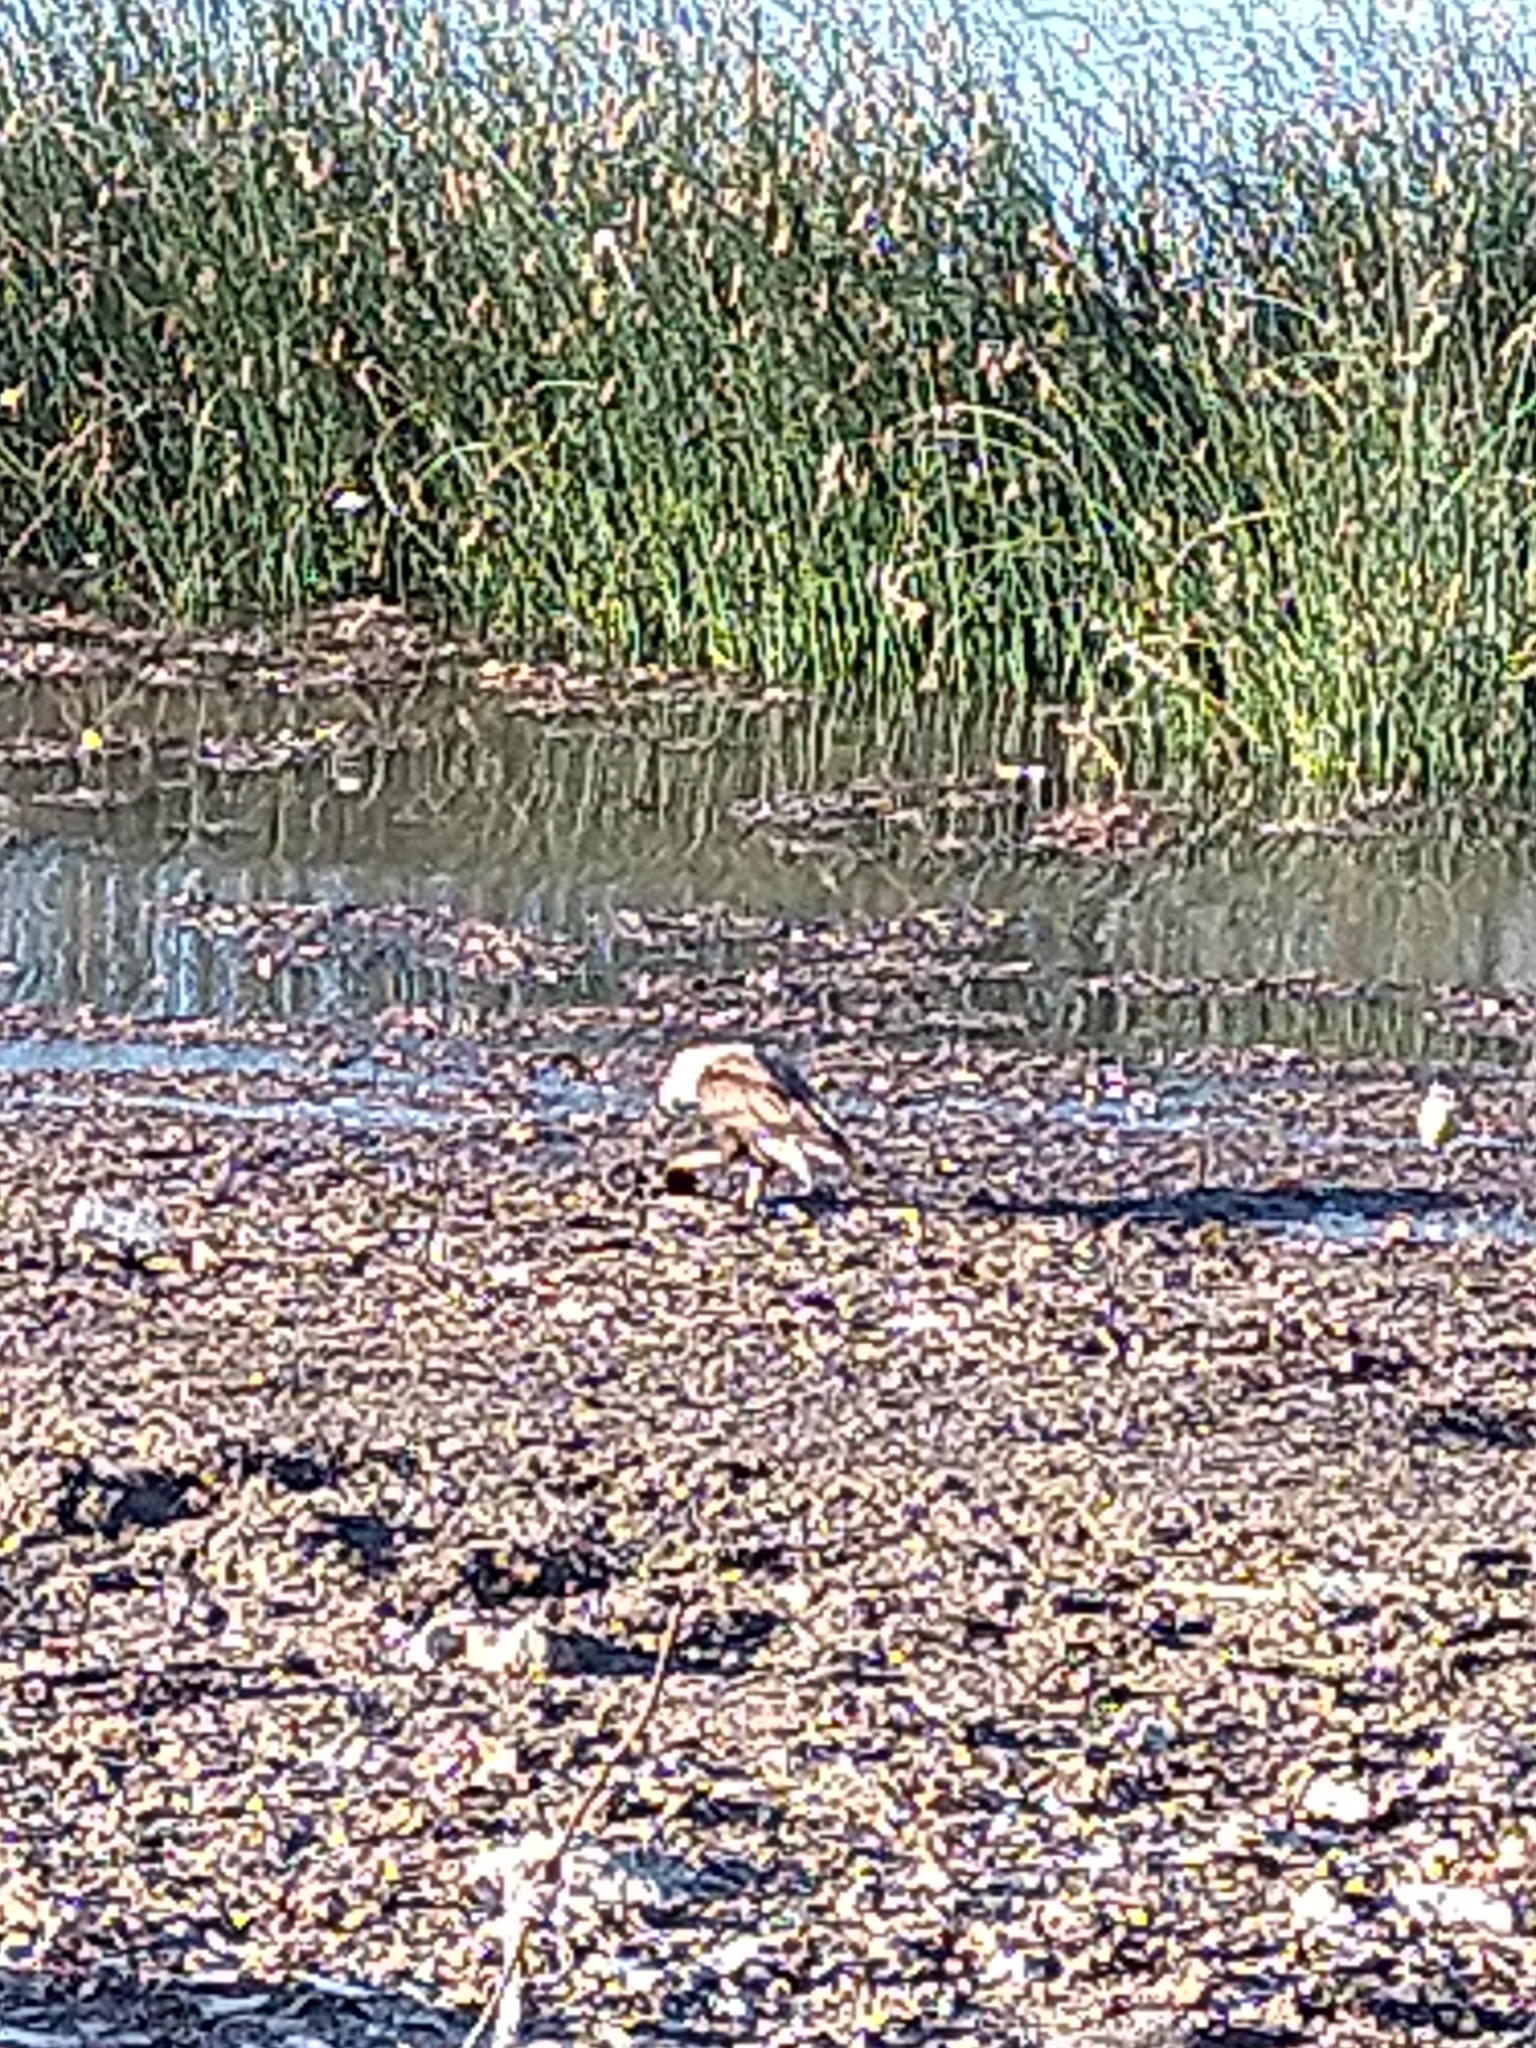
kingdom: Animalia
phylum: Chordata
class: Aves
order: Falconiformes
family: Falconidae
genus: Caracara
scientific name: Caracara plancus
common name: Southern caracara
